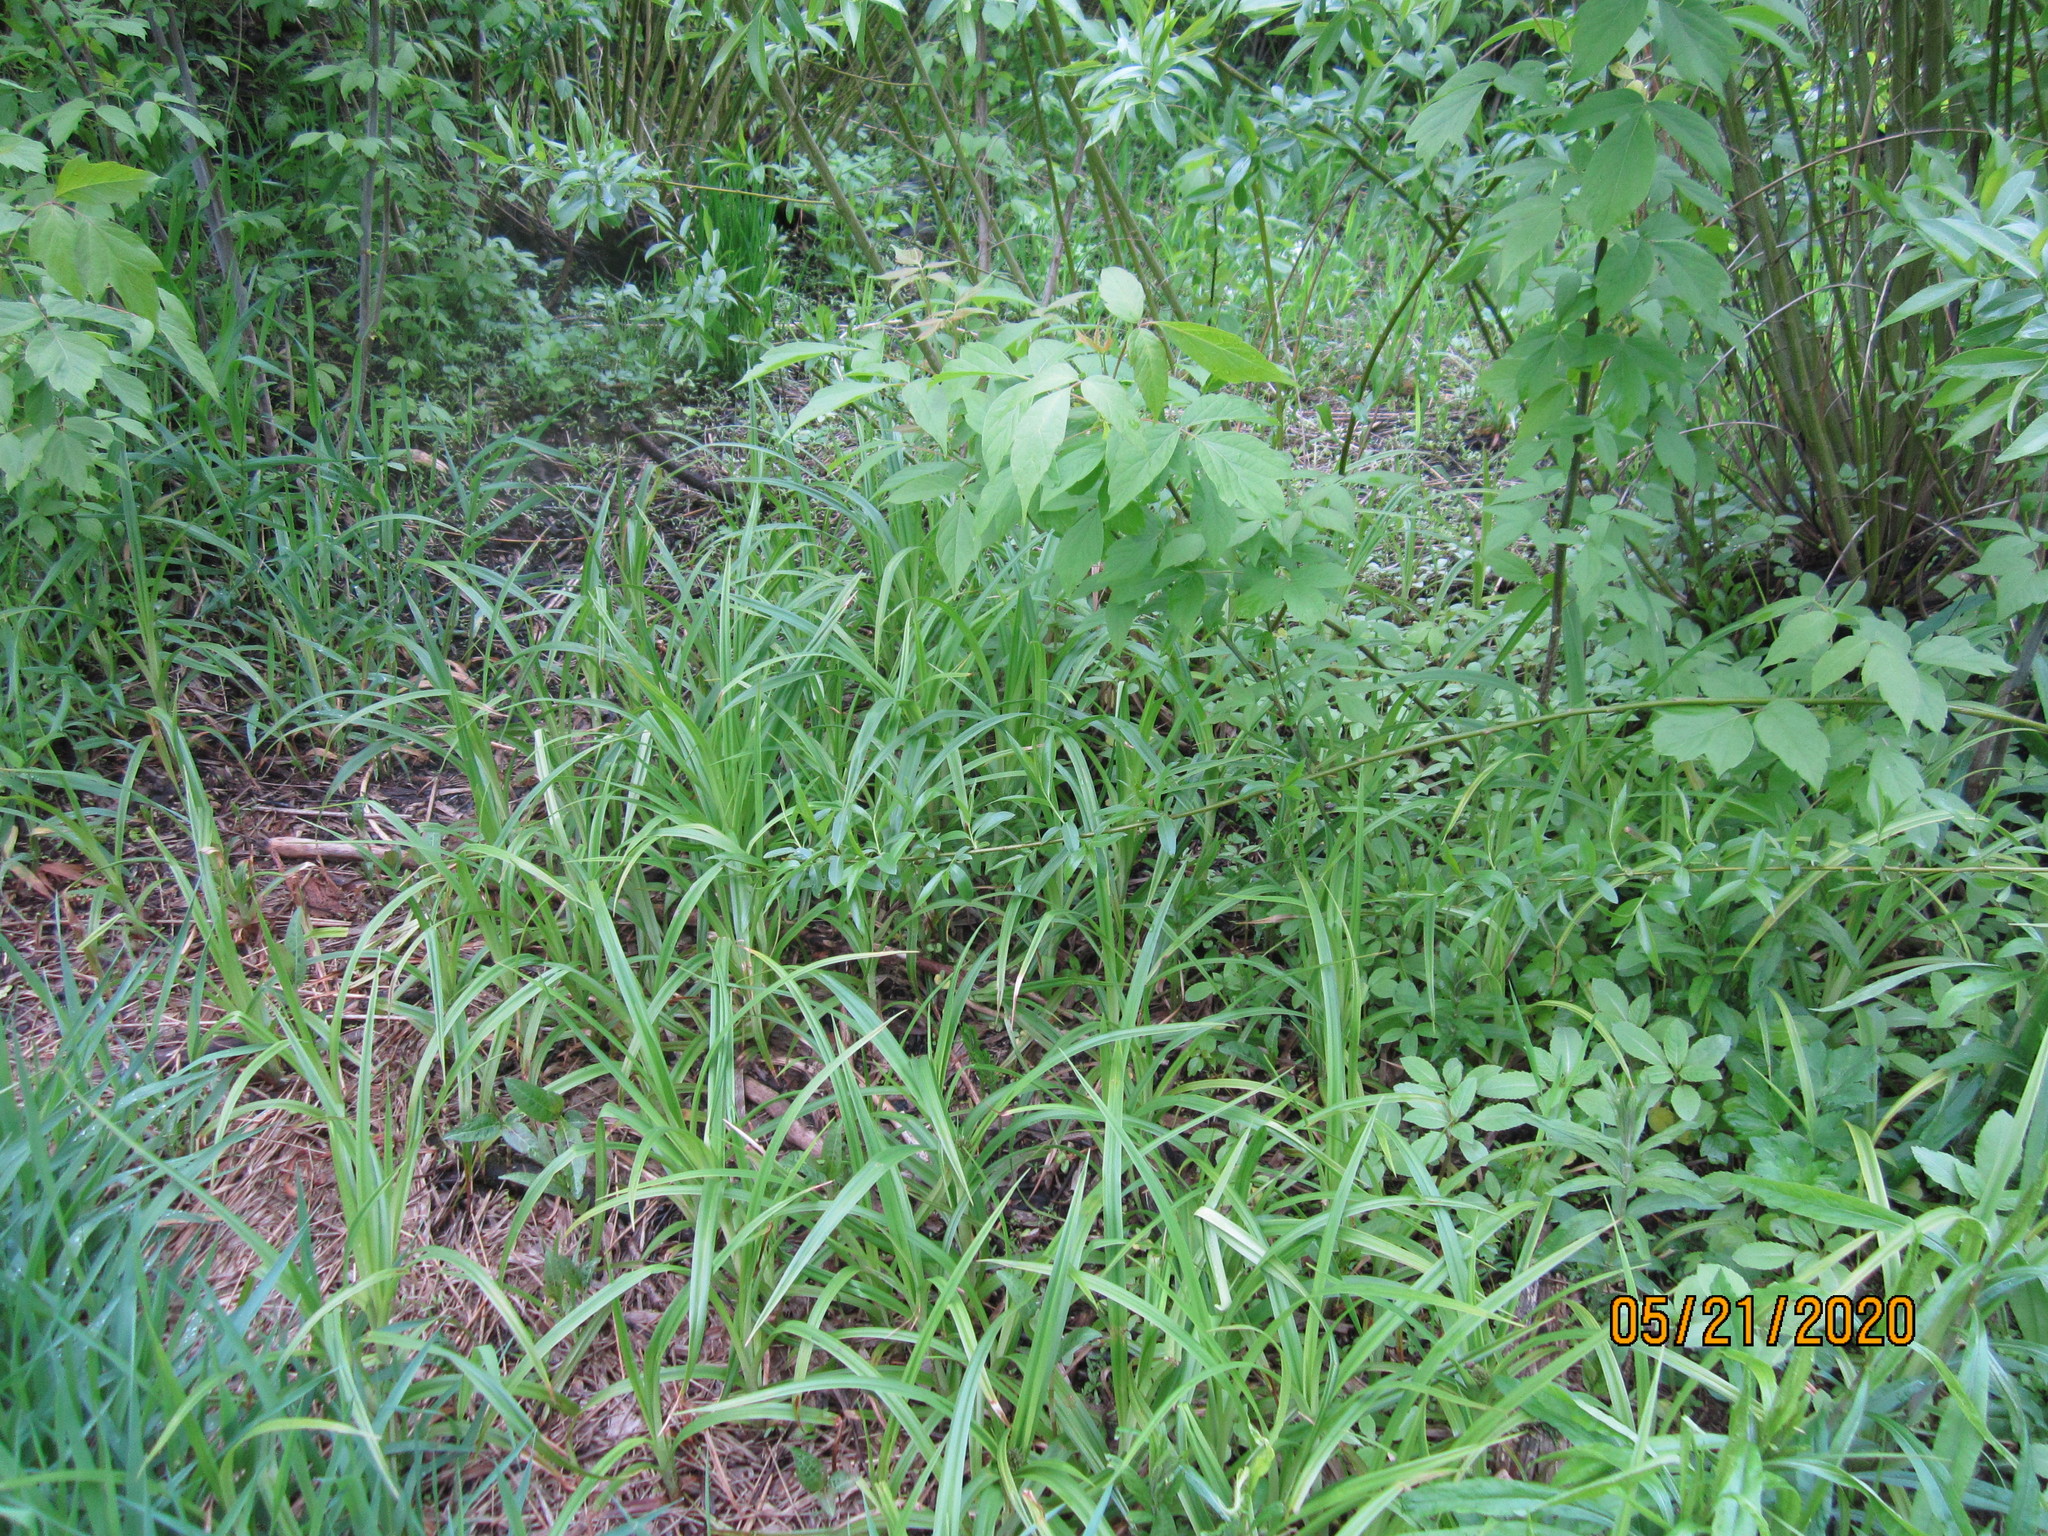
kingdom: Plantae
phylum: Tracheophyta
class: Liliopsida
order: Poales
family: Cyperaceae
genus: Scirpus
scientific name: Scirpus sylvaticus
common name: Wood club-rush
